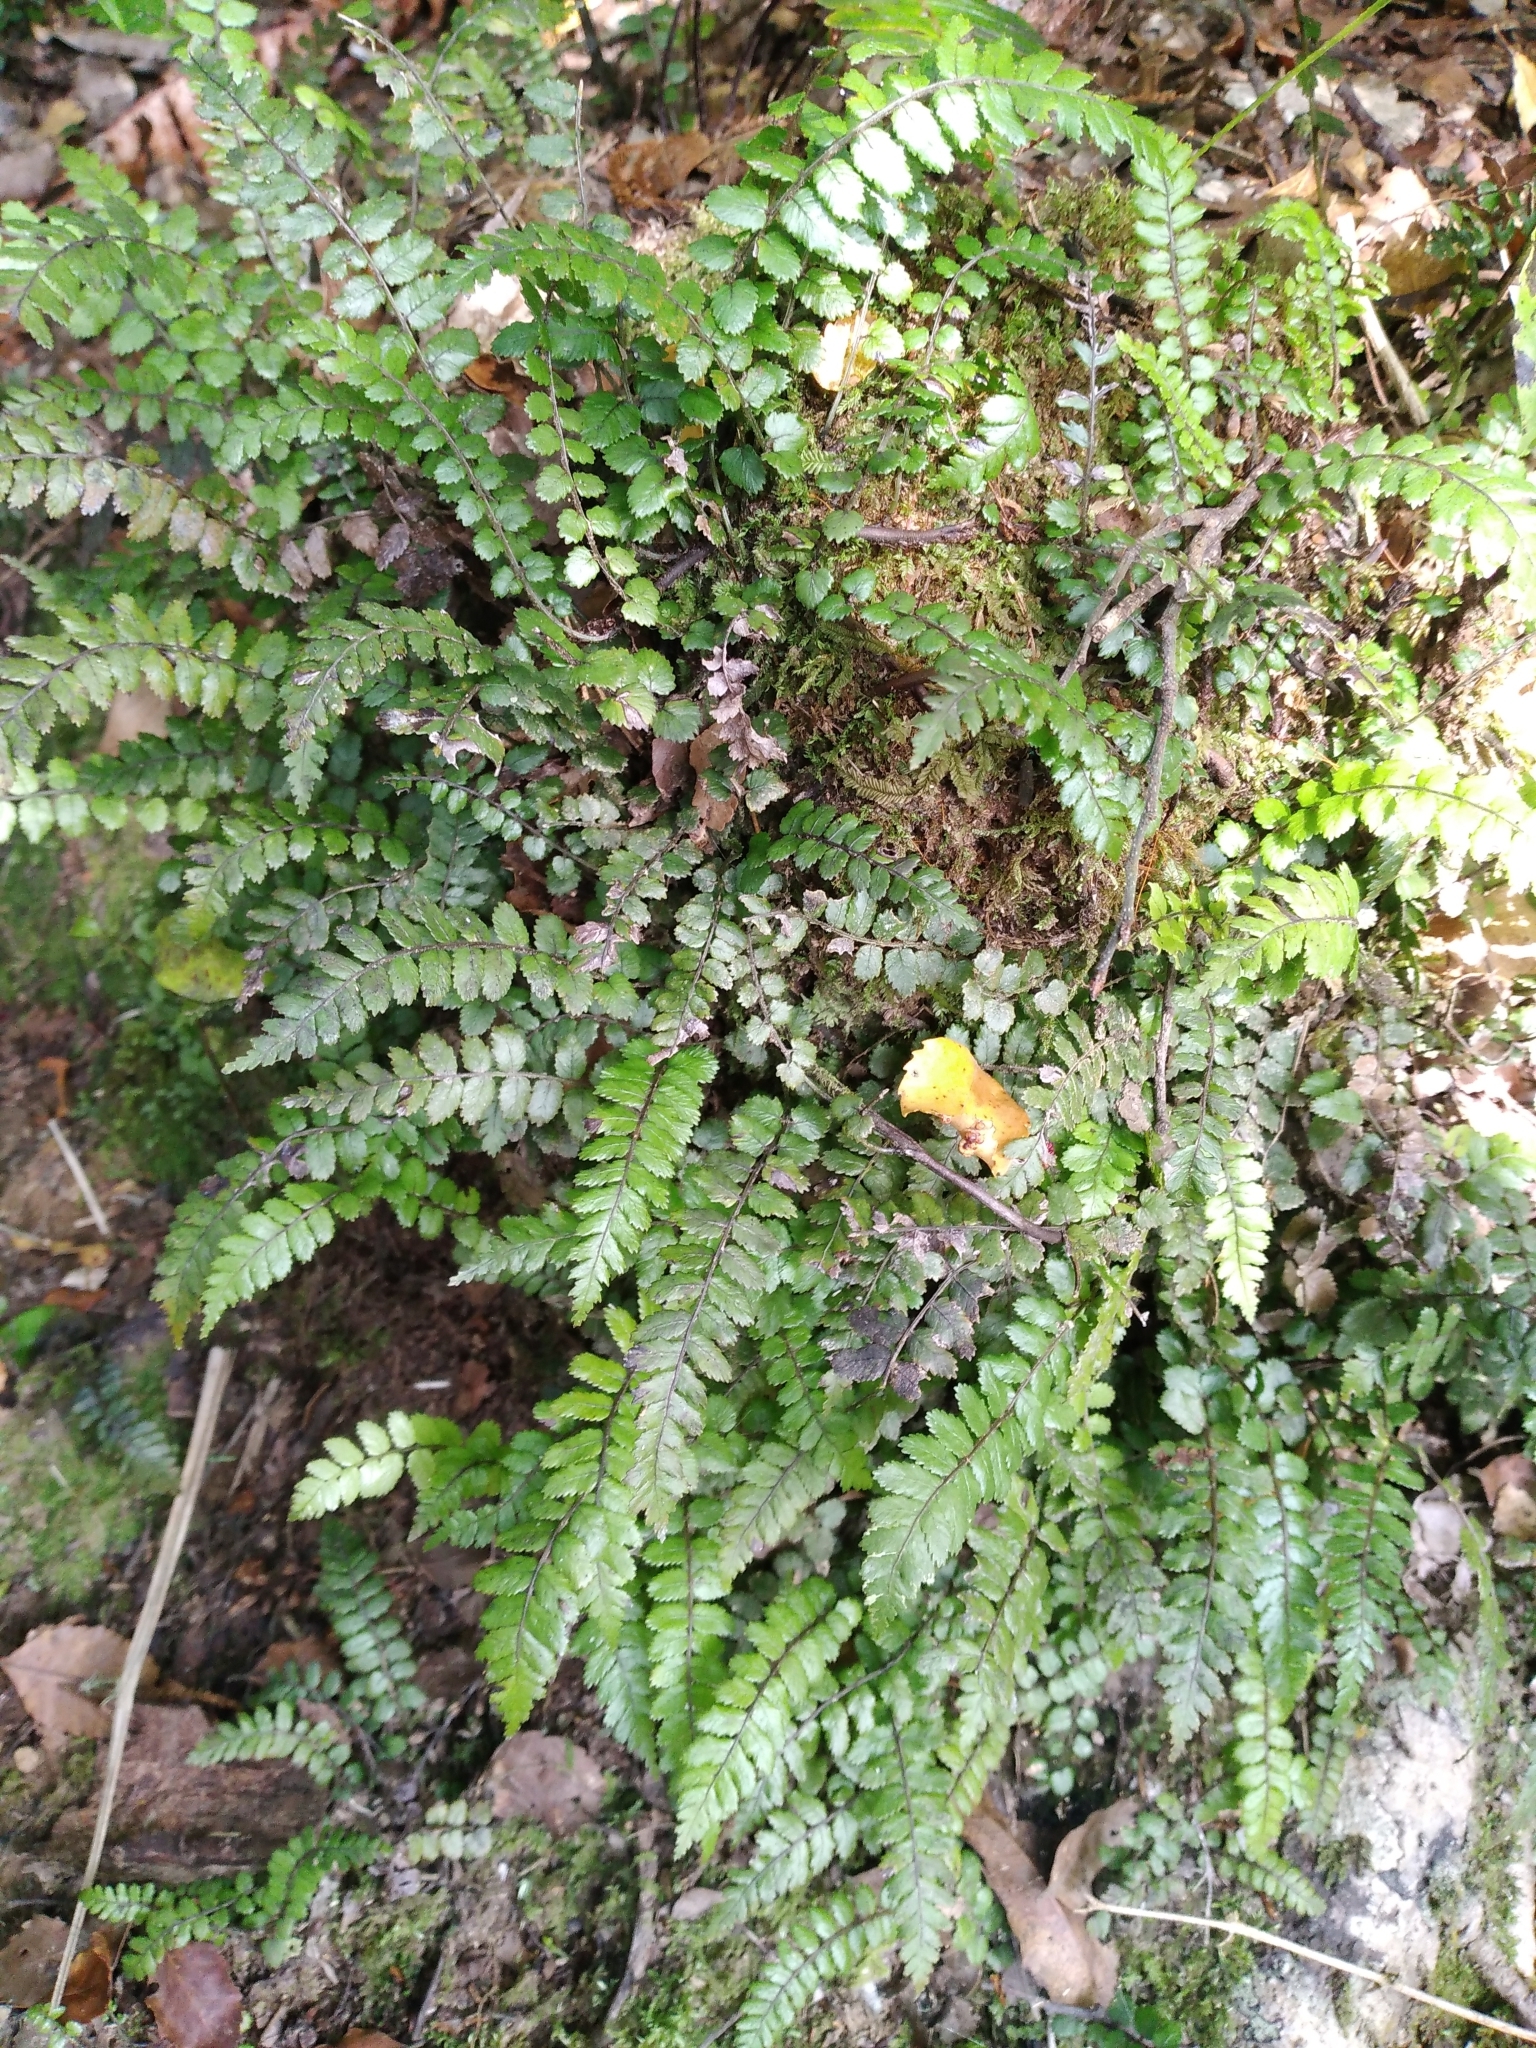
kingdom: Plantae
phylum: Tracheophyta
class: Polypodiopsida
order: Polypodiales
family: Blechnaceae
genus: Icarus
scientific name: Icarus filiformis
